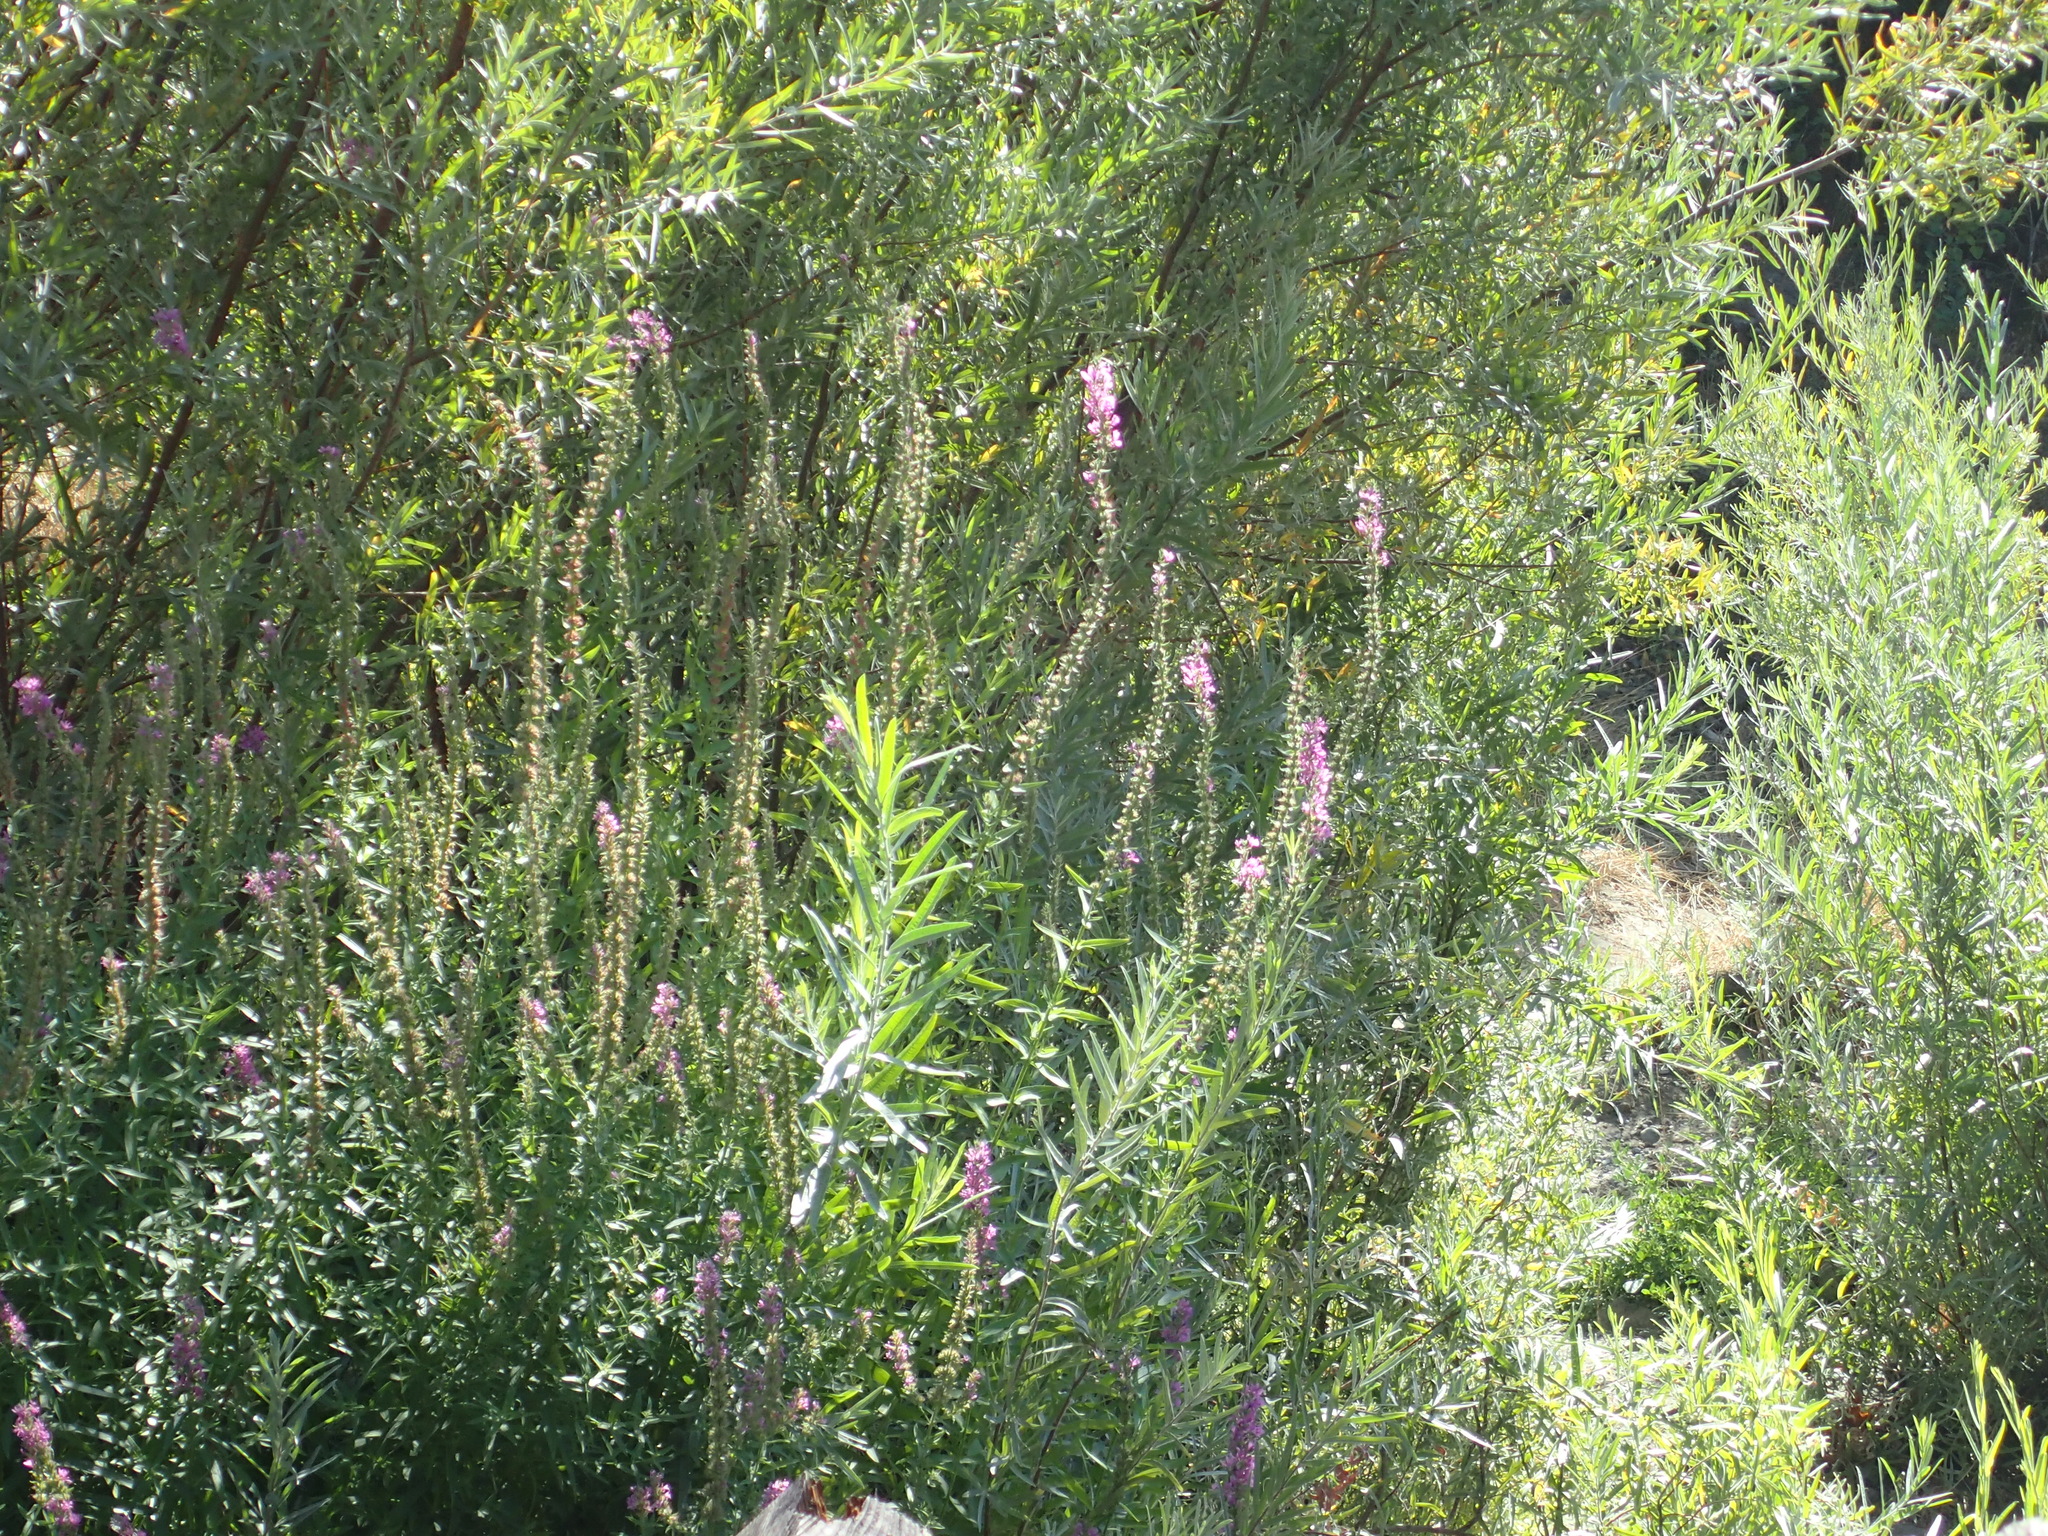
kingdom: Plantae
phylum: Tracheophyta
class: Magnoliopsida
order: Myrtales
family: Lythraceae
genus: Lythrum
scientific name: Lythrum salicaria
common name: Purple loosestrife
